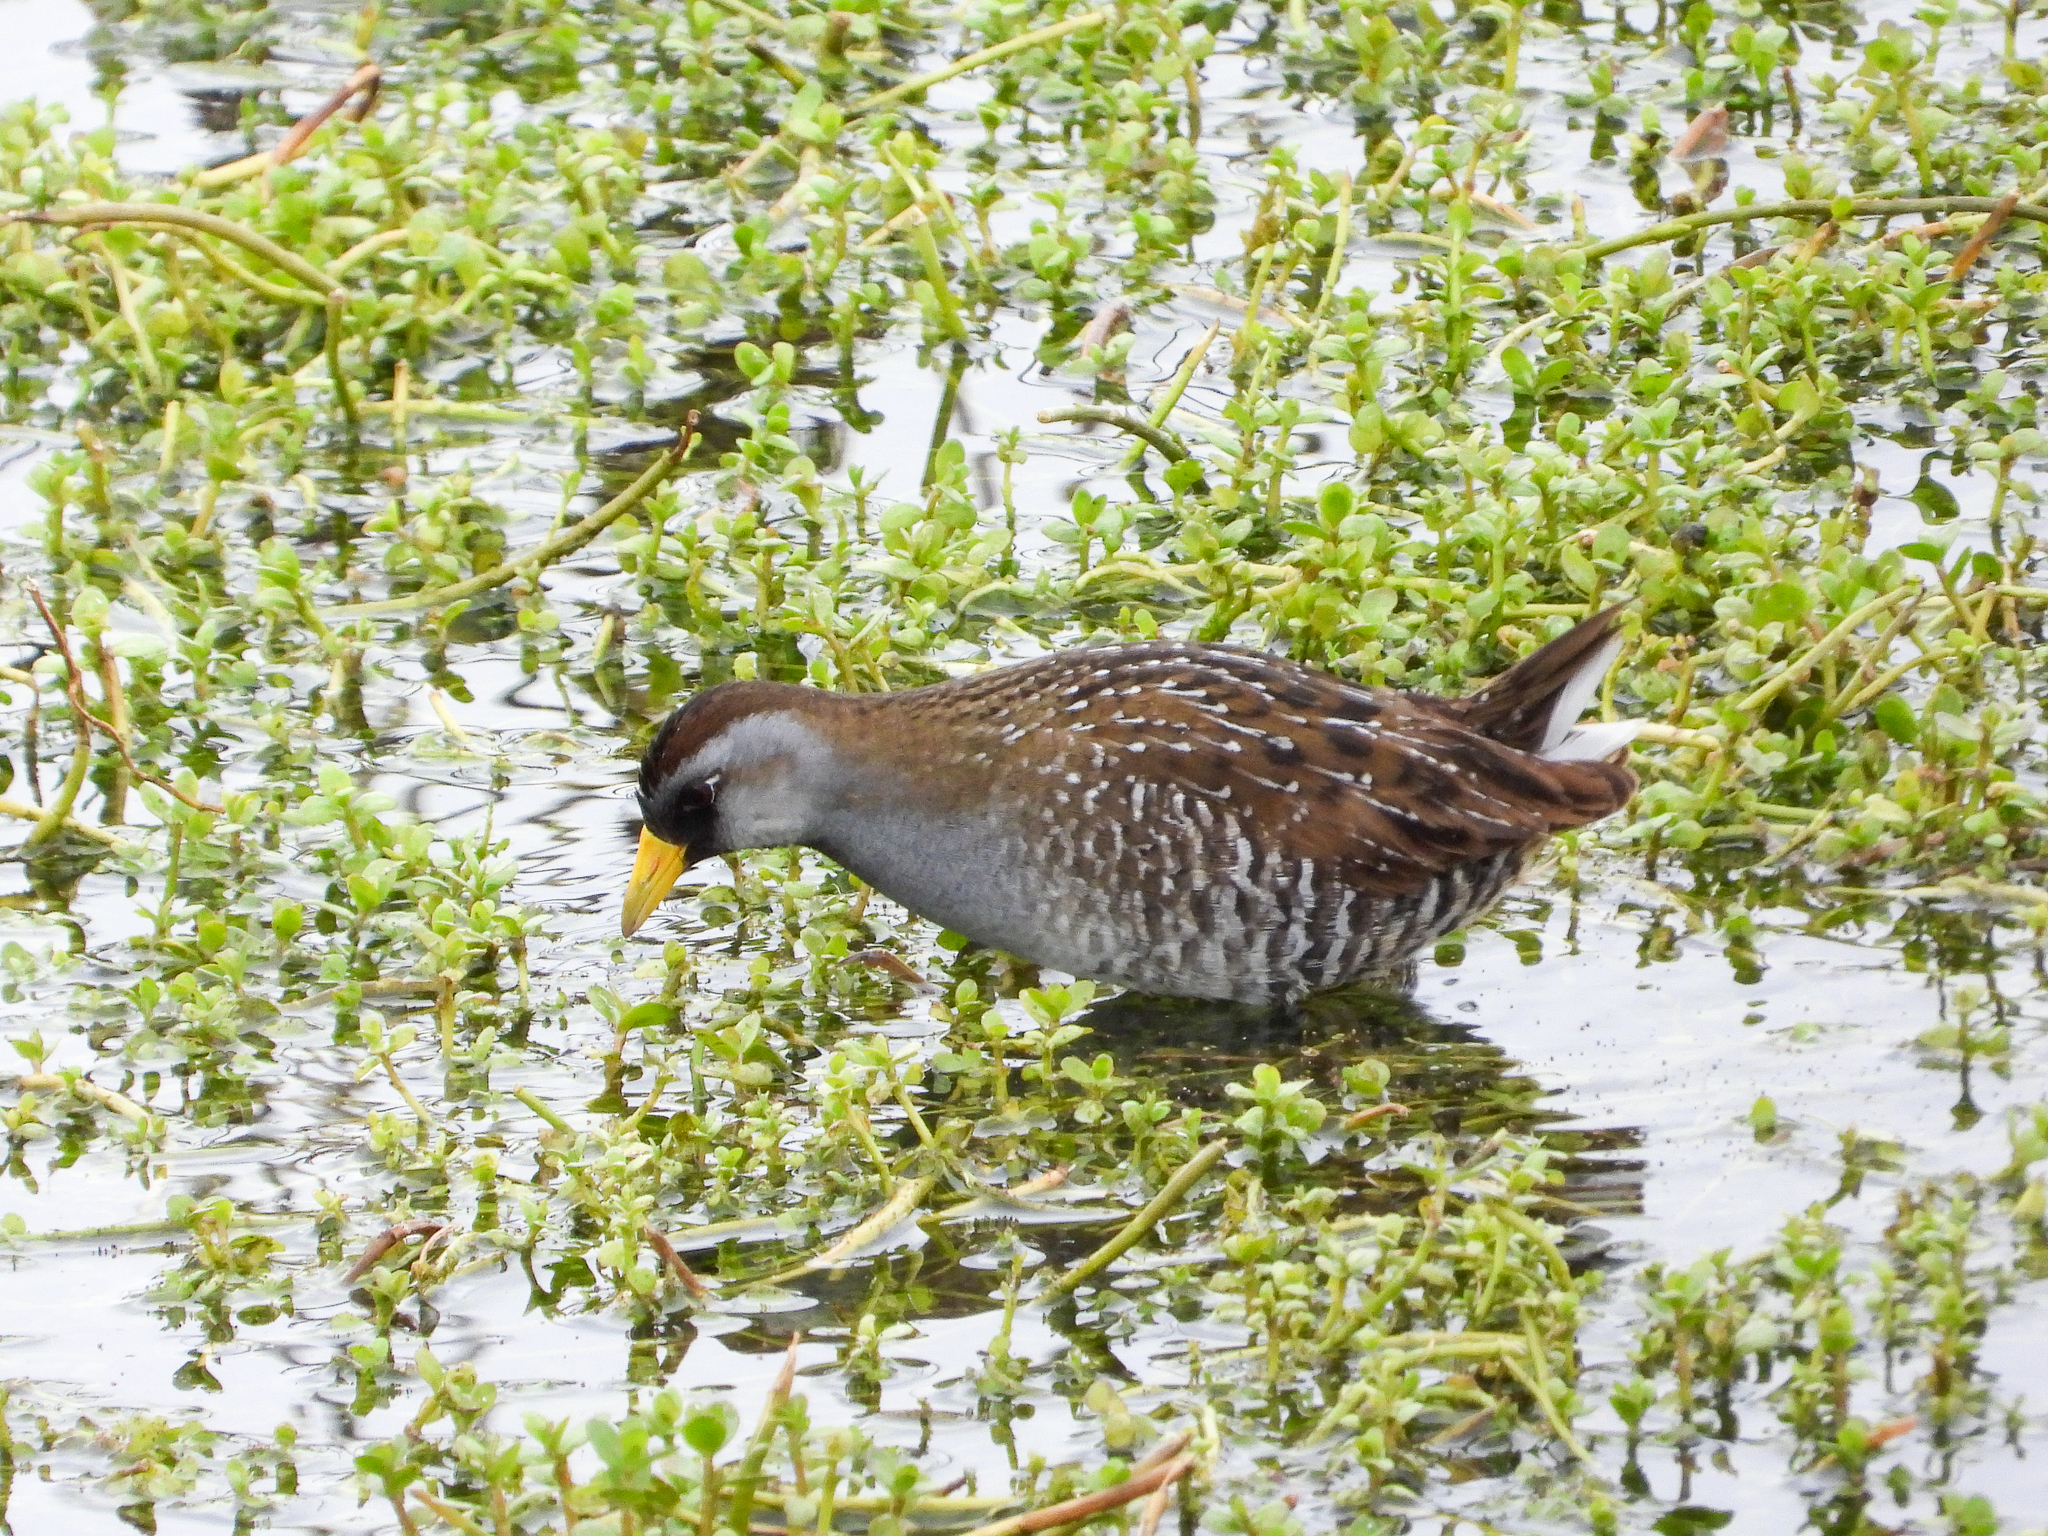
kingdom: Animalia
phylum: Chordata
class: Aves
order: Gruiformes
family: Rallidae
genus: Porzana
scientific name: Porzana carolina
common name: Sora
